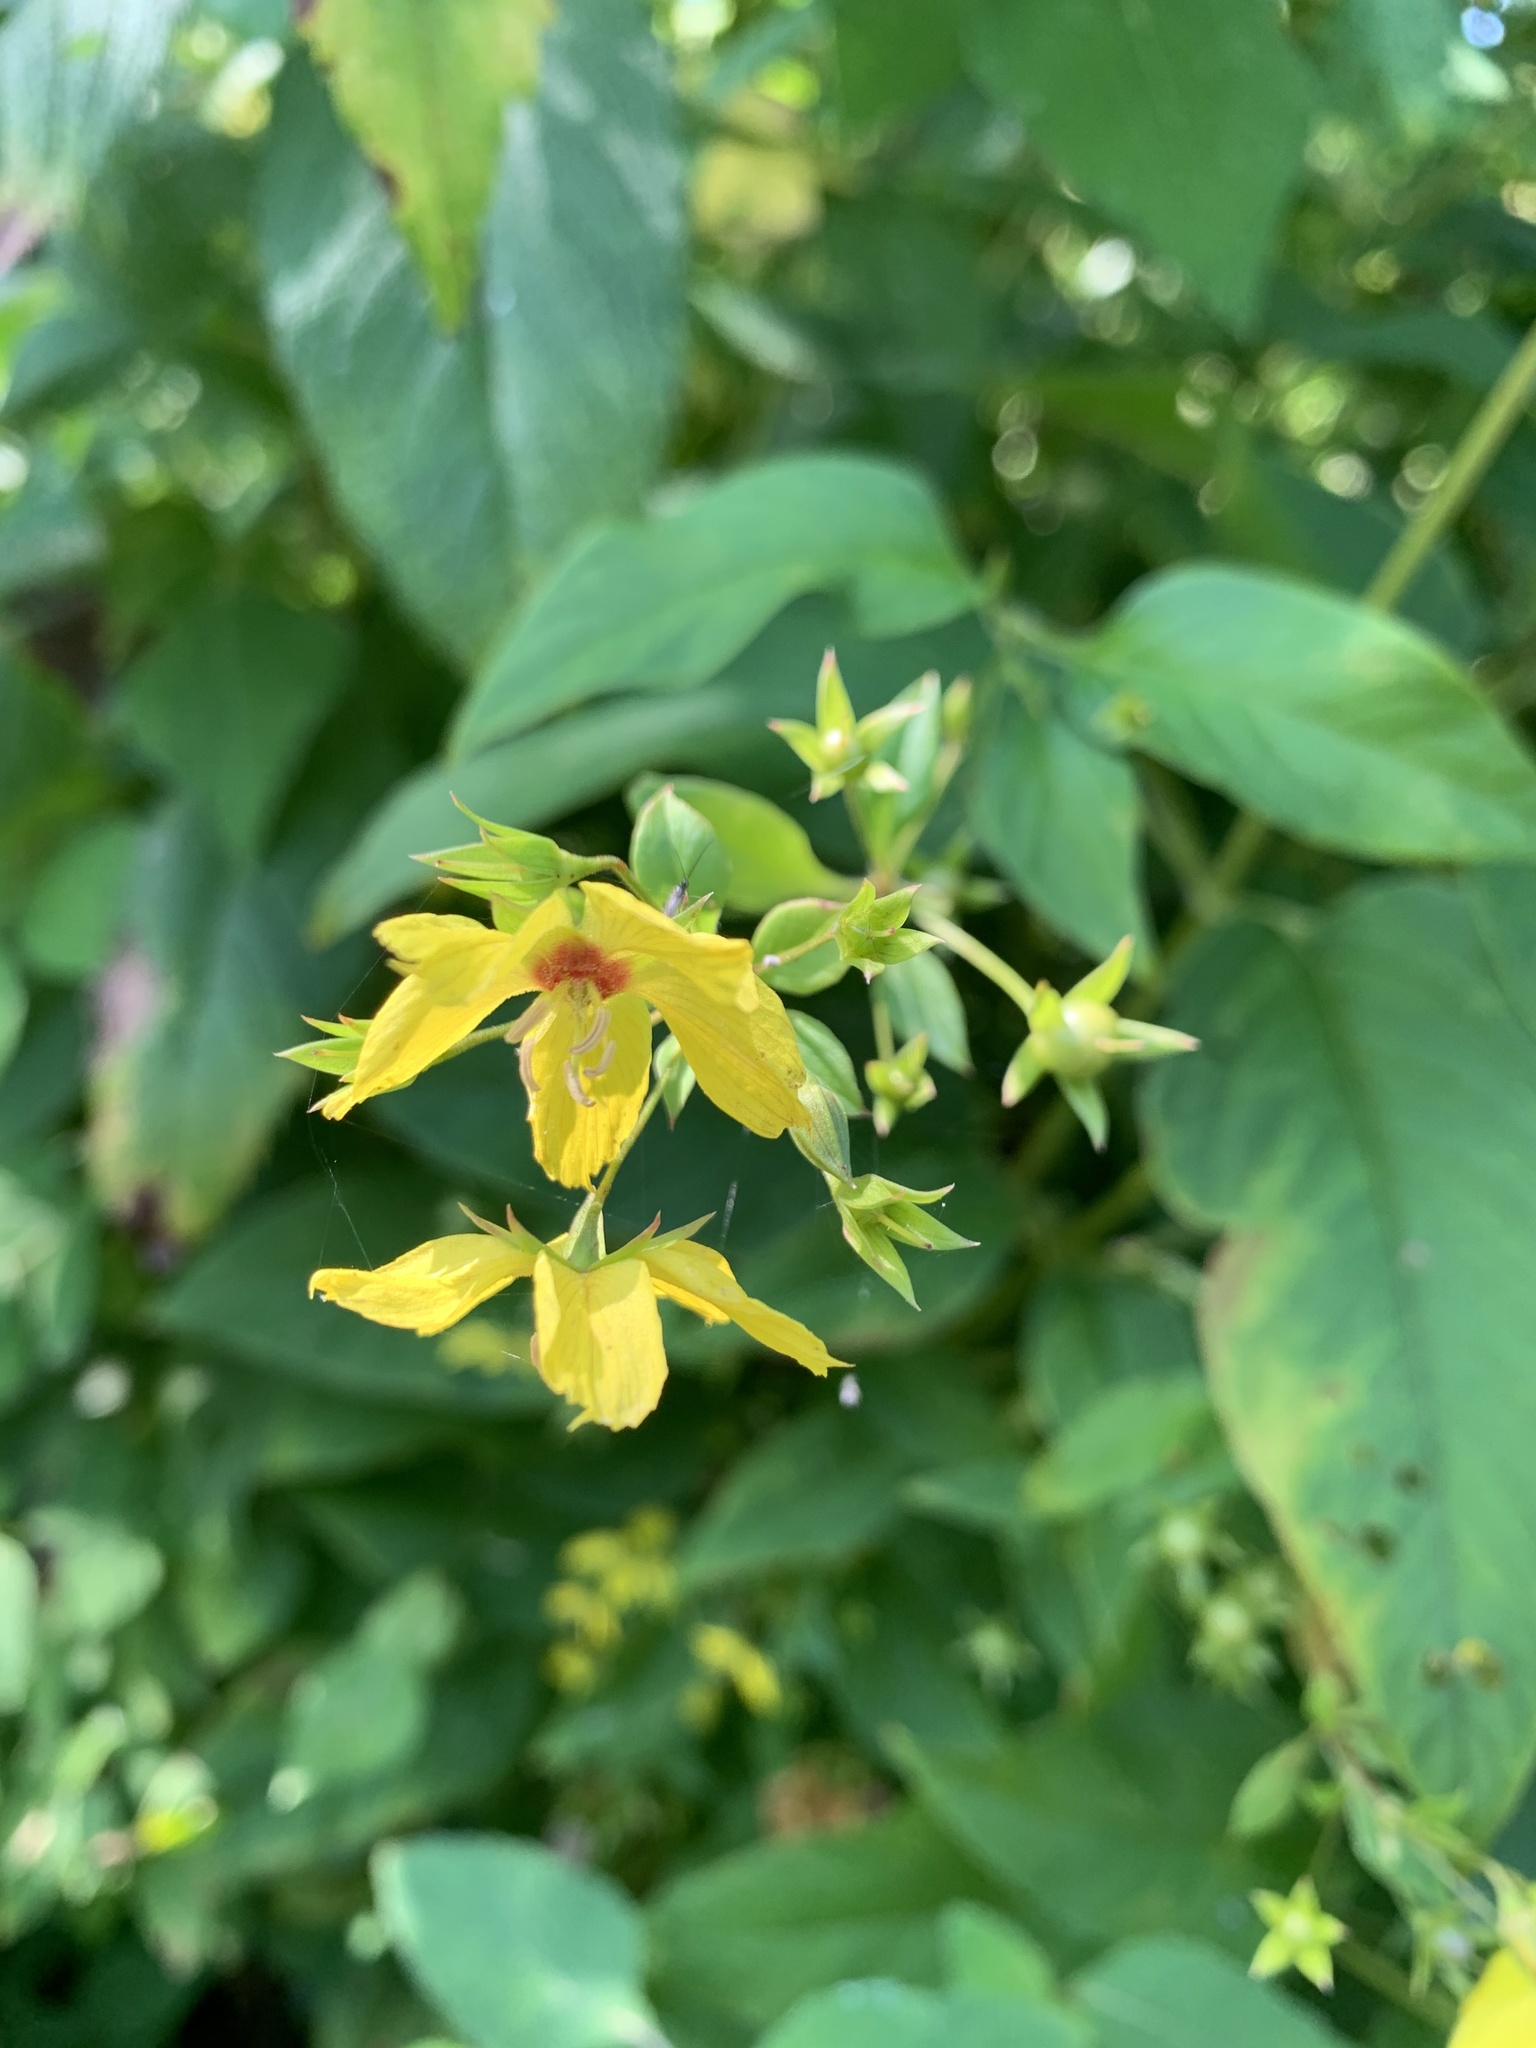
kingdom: Plantae
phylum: Tracheophyta
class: Magnoliopsida
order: Ericales
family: Primulaceae
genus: Lysimachia
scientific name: Lysimachia ciliata
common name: Fringed loosestrife
